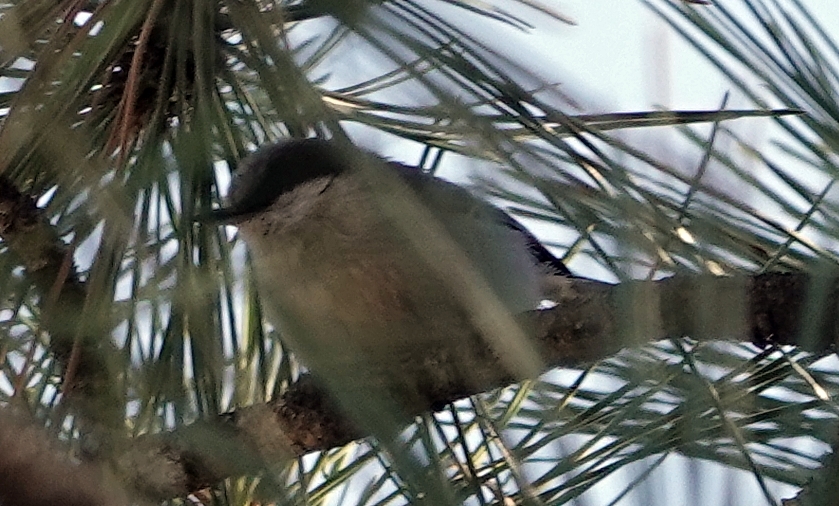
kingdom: Animalia
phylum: Chordata
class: Aves
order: Passeriformes
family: Sittidae
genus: Sitta
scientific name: Sitta pygmaea
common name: Pygmy nuthatch
